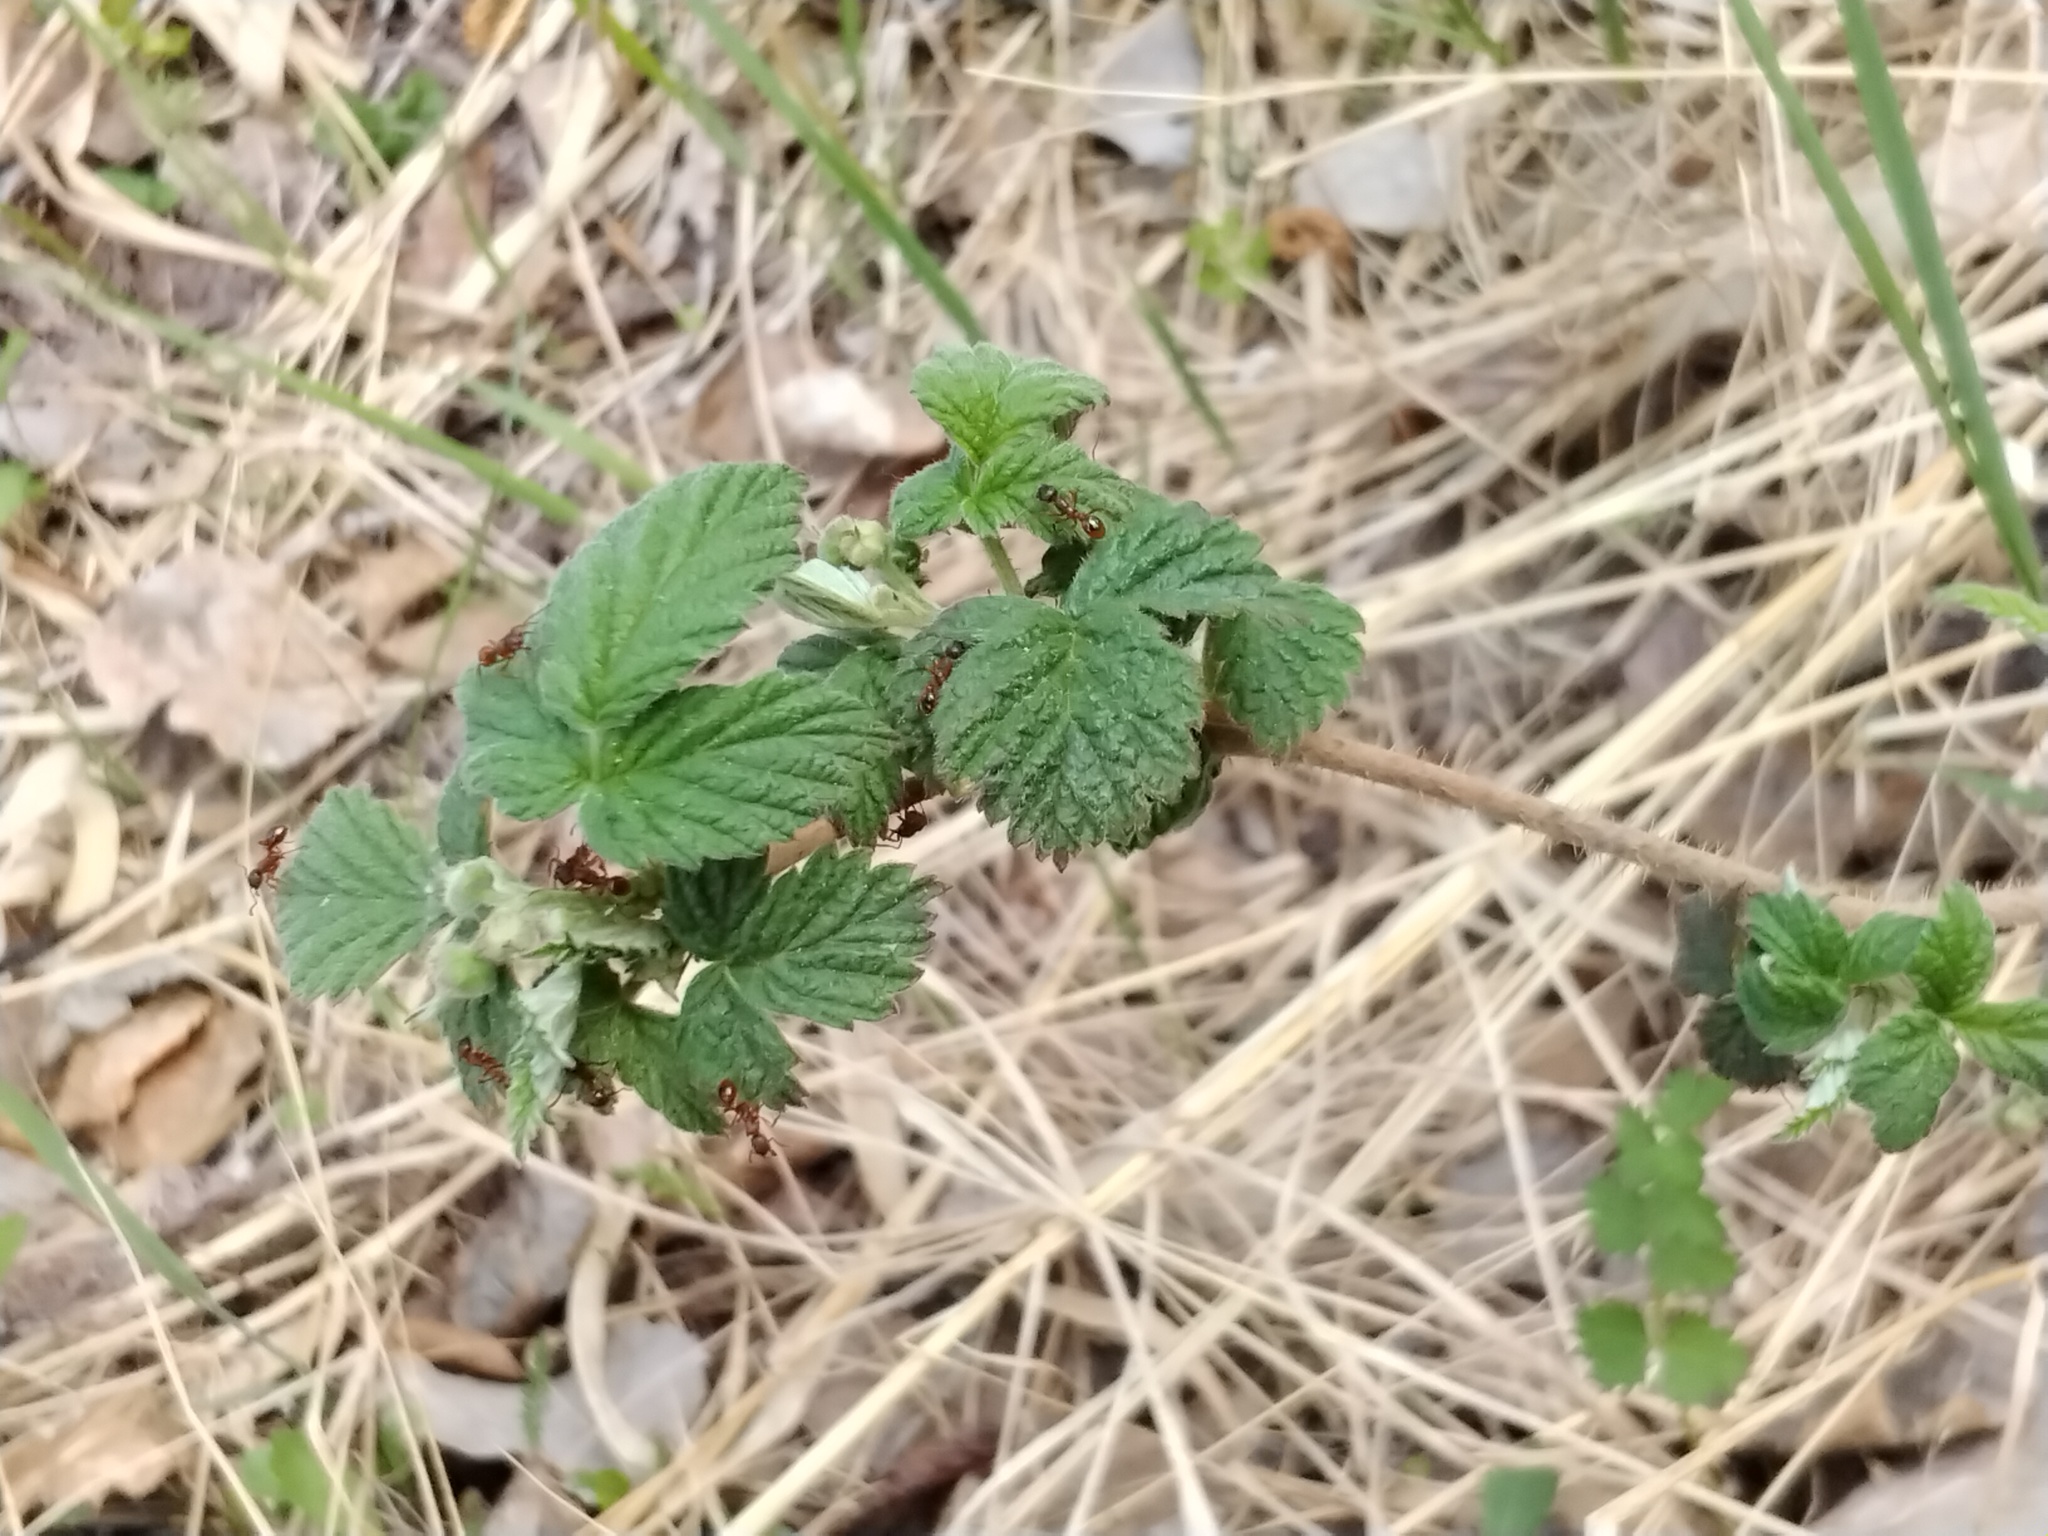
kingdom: Plantae
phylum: Tracheophyta
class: Magnoliopsida
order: Rosales
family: Rosaceae
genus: Rubus
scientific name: Rubus idaeus
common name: Raspberry
